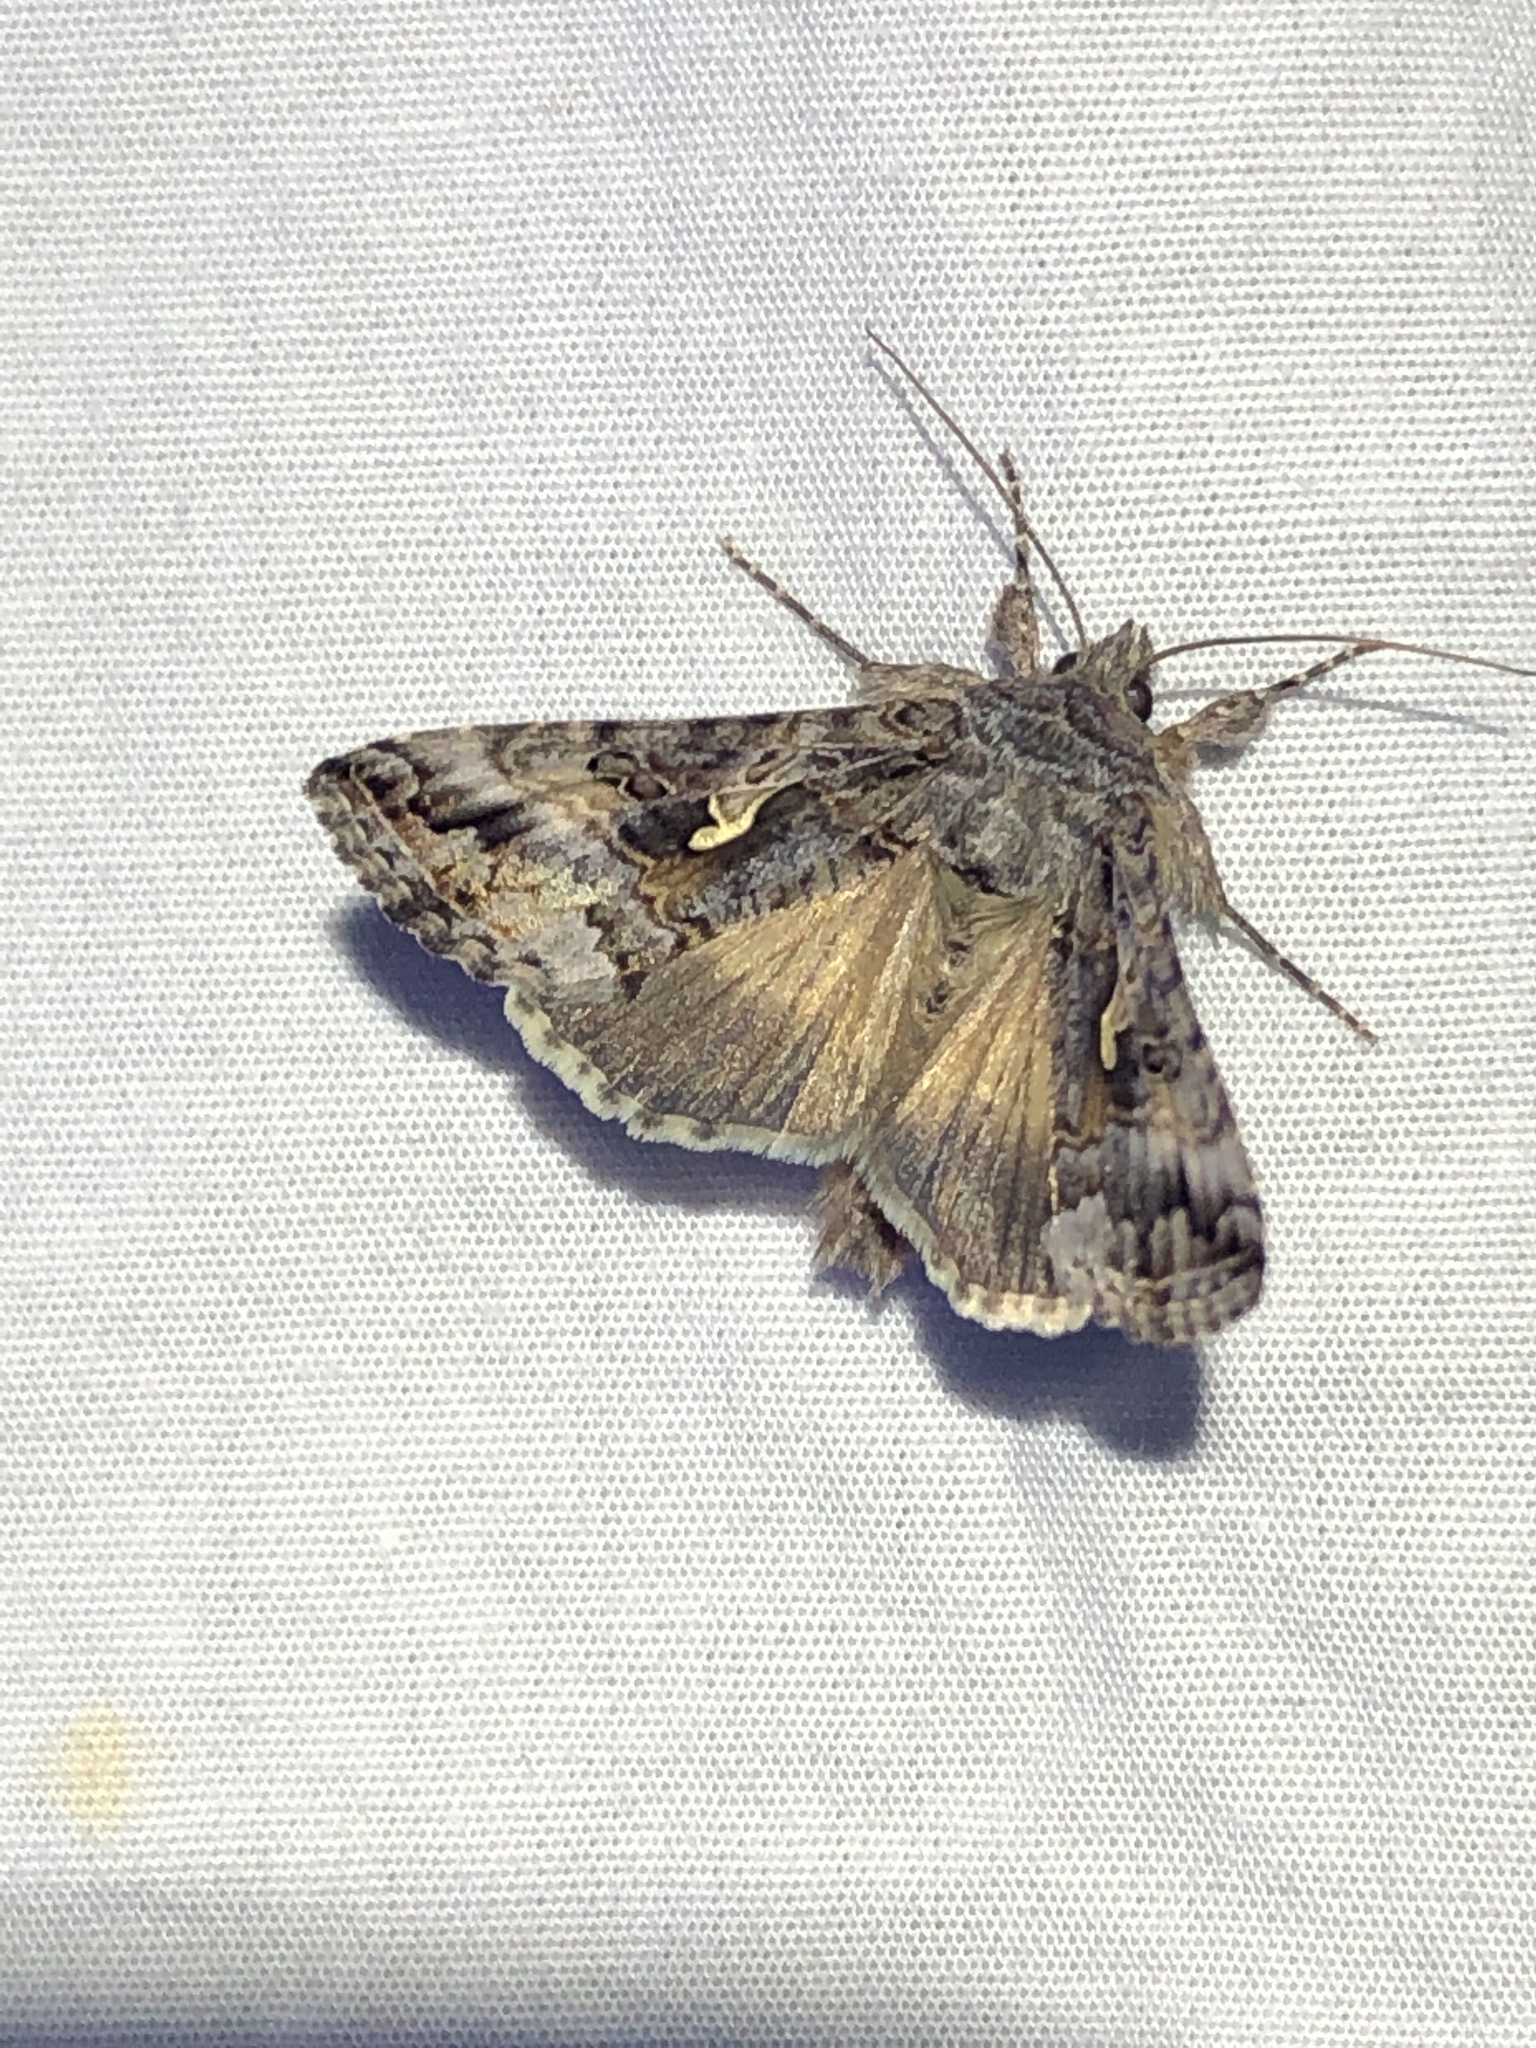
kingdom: Animalia
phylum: Arthropoda
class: Insecta
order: Lepidoptera
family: Noctuidae
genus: Autographa
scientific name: Autographa californica
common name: Alfalfa looper
